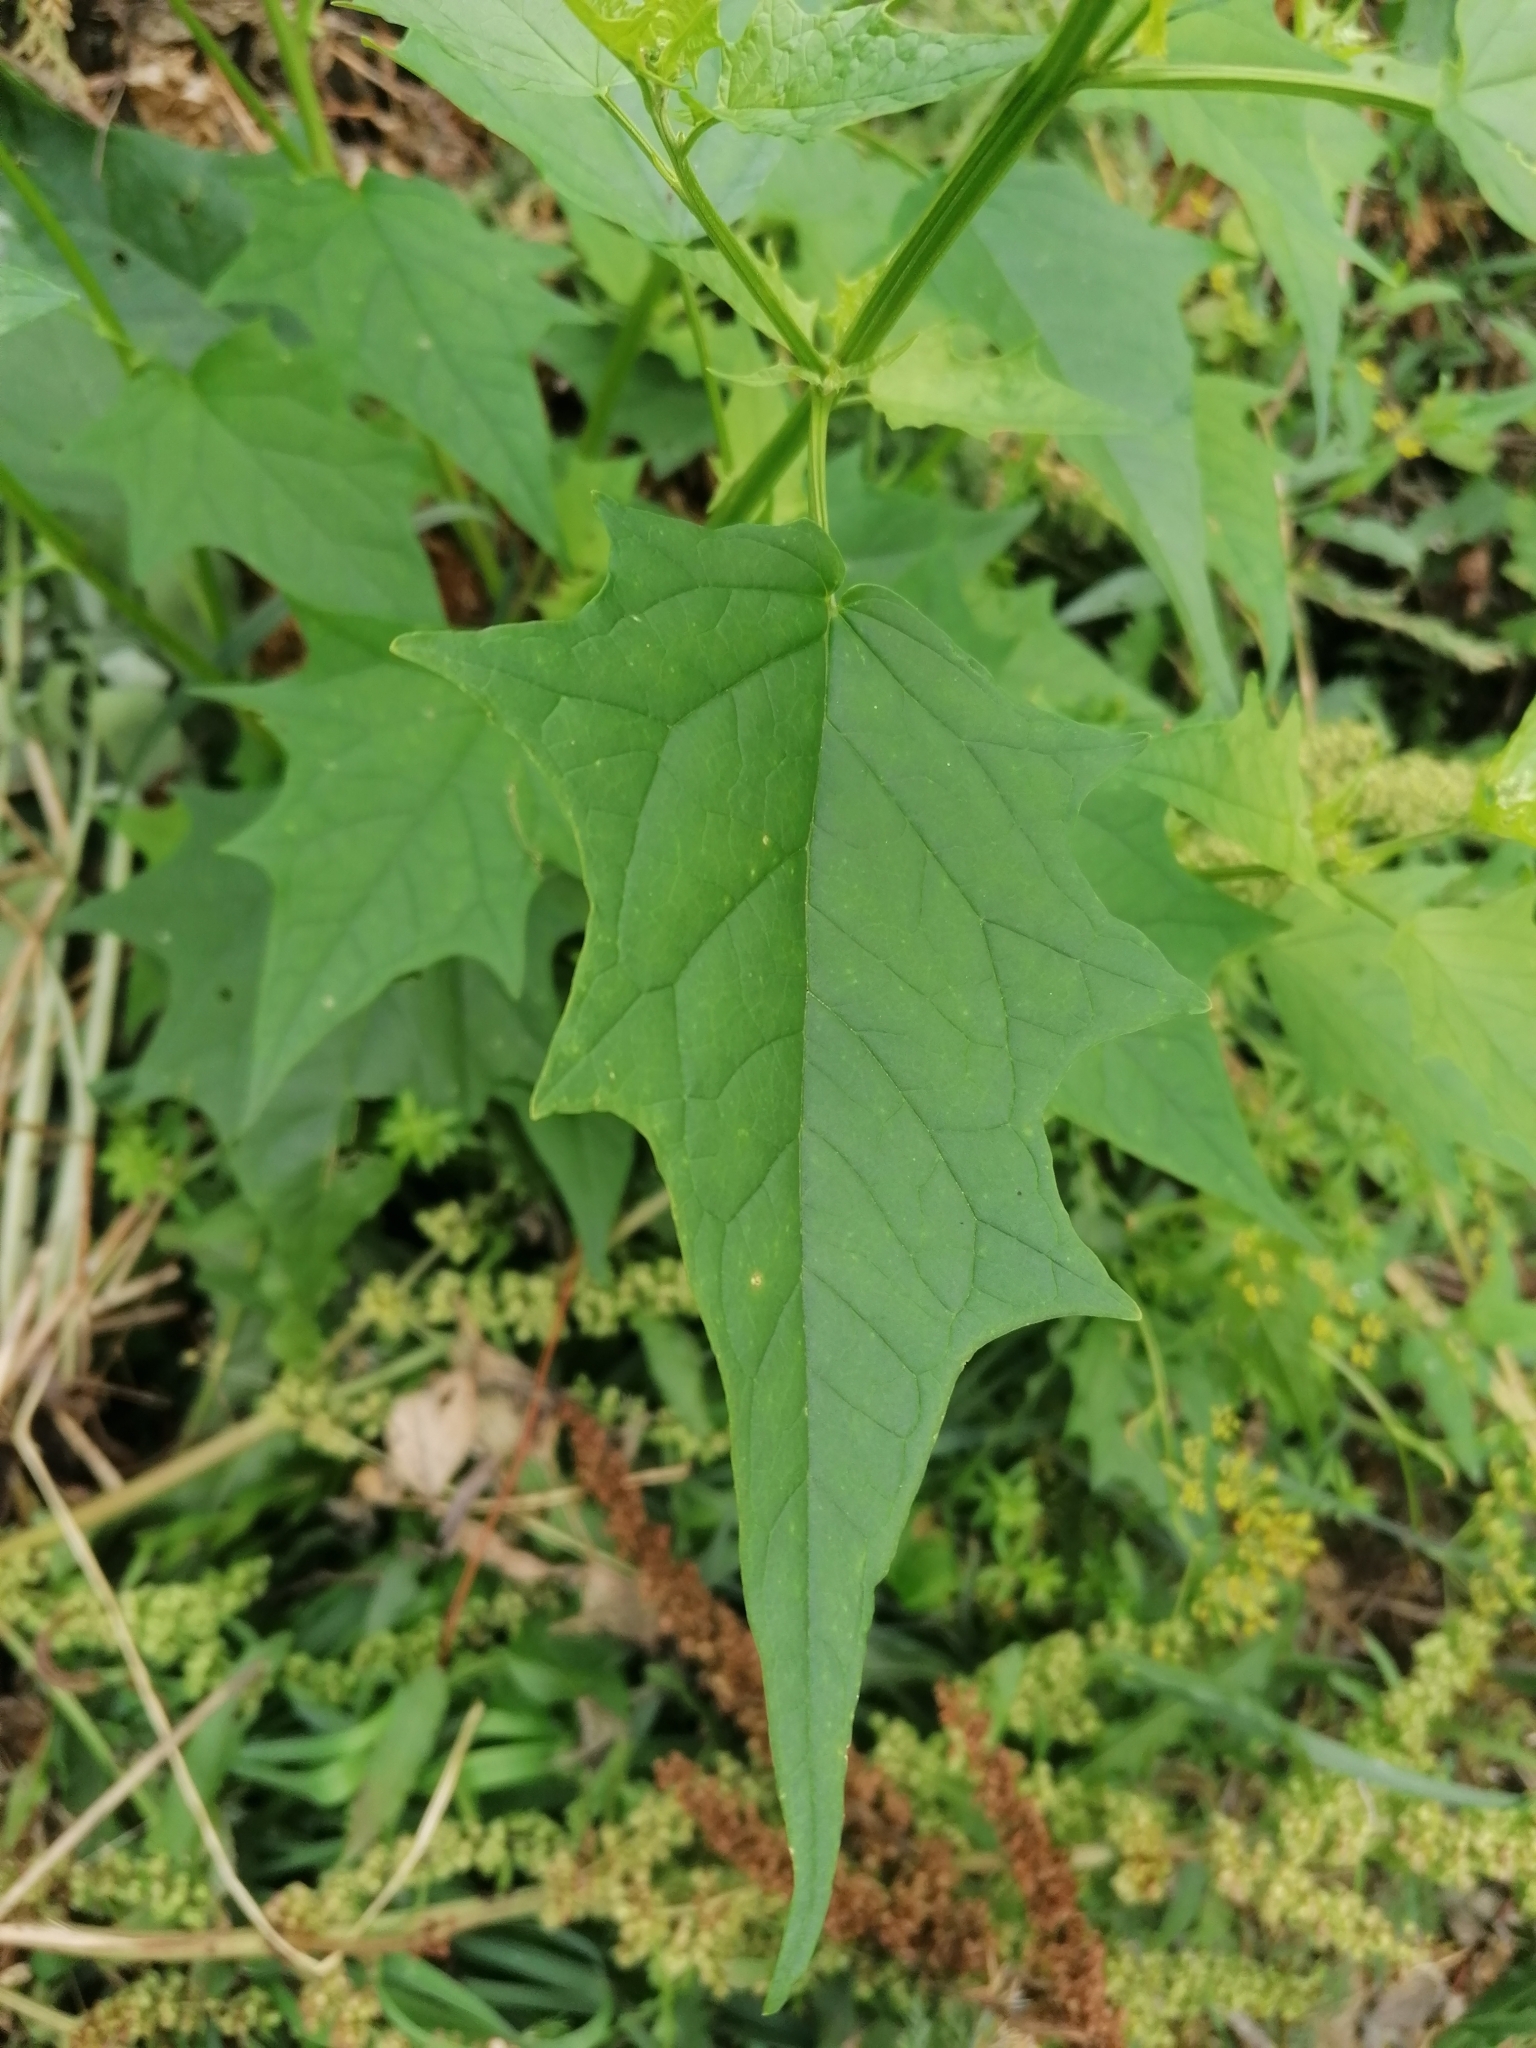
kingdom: Plantae
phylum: Tracheophyta
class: Magnoliopsida
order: Caryophyllales
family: Amaranthaceae
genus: Chenopodiastrum
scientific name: Chenopodiastrum hybridum
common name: Mapleleaf goosefoot
